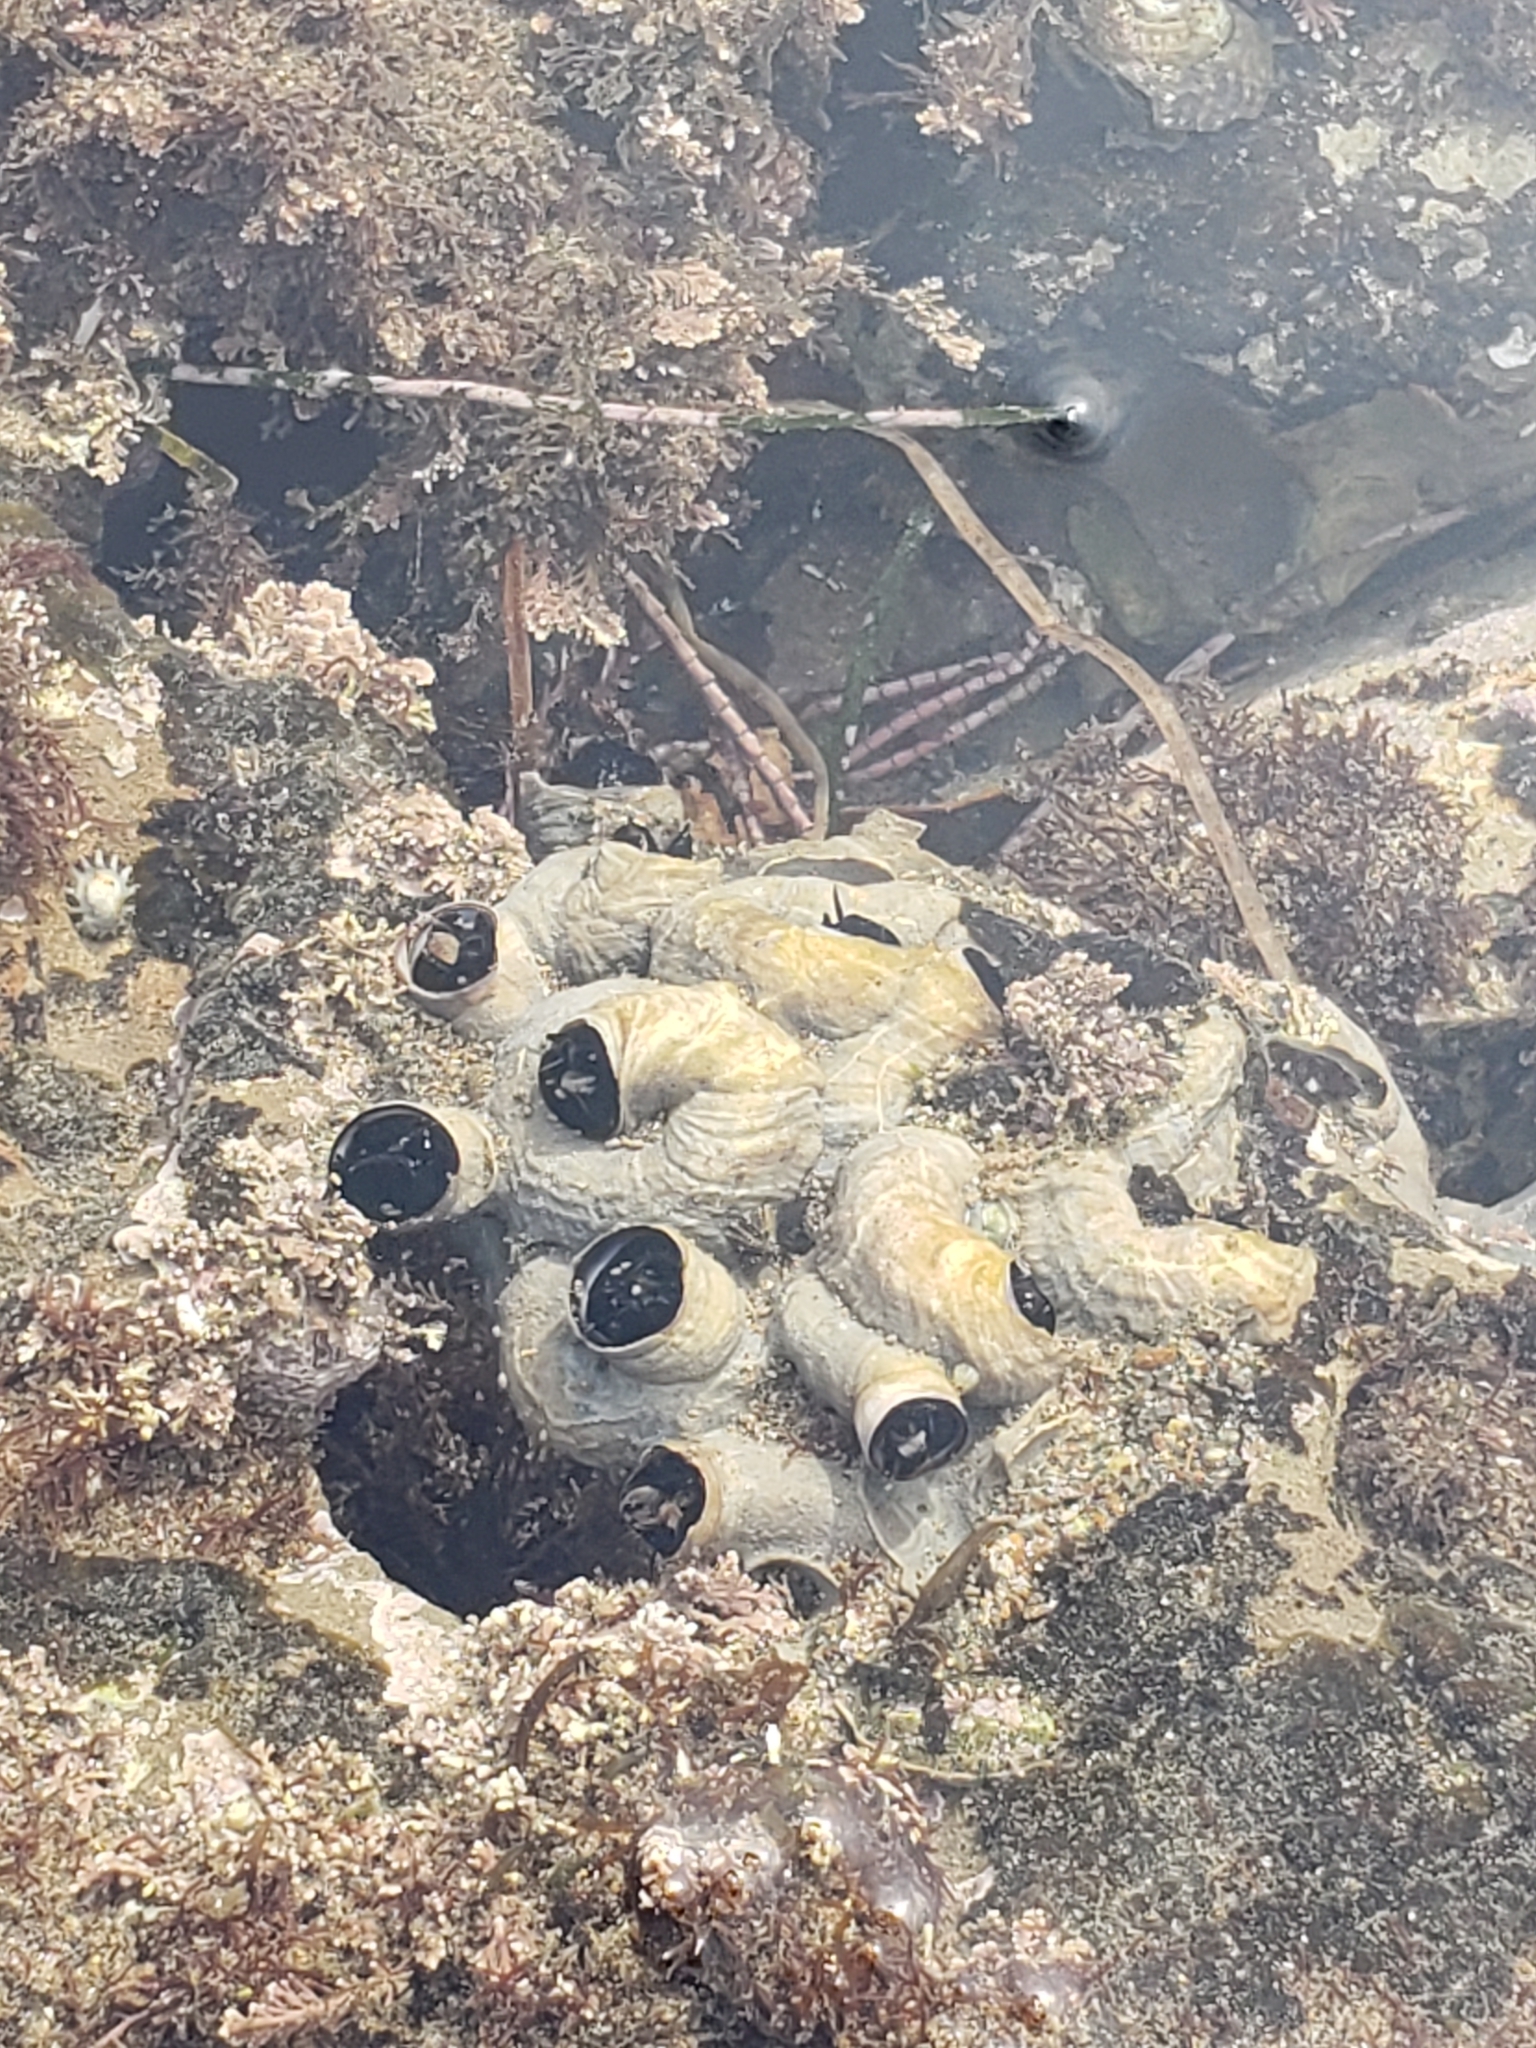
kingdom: Animalia
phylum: Mollusca
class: Gastropoda
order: Littorinimorpha
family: Vermetidae
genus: Thylacodes
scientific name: Thylacodes squamigerus
